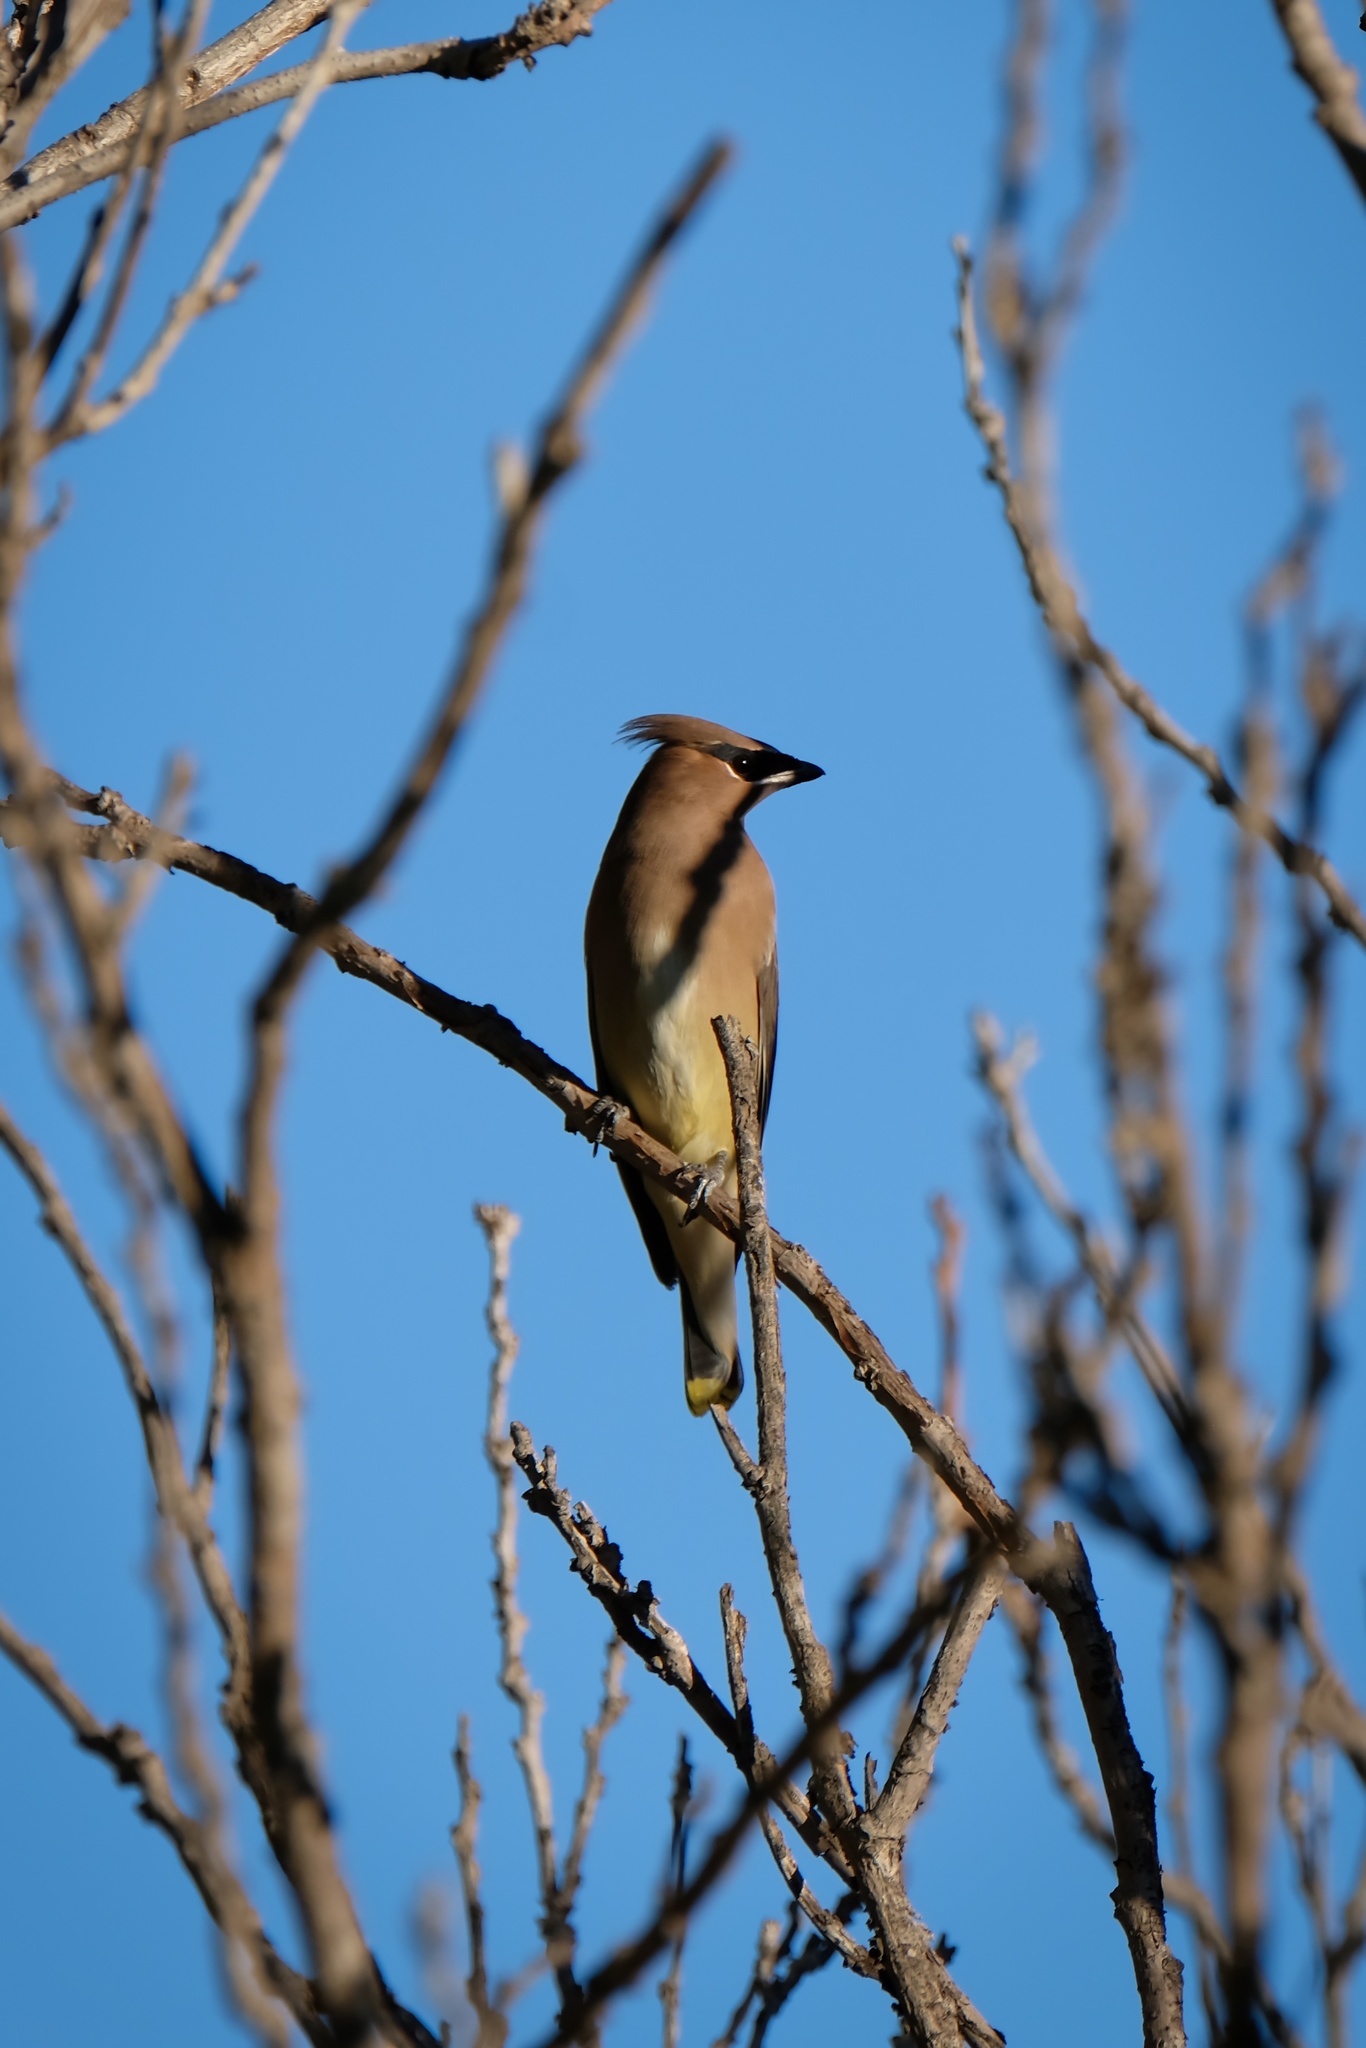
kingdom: Animalia
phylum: Chordata
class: Aves
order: Passeriformes
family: Bombycillidae
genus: Bombycilla
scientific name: Bombycilla cedrorum
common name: Cedar waxwing
